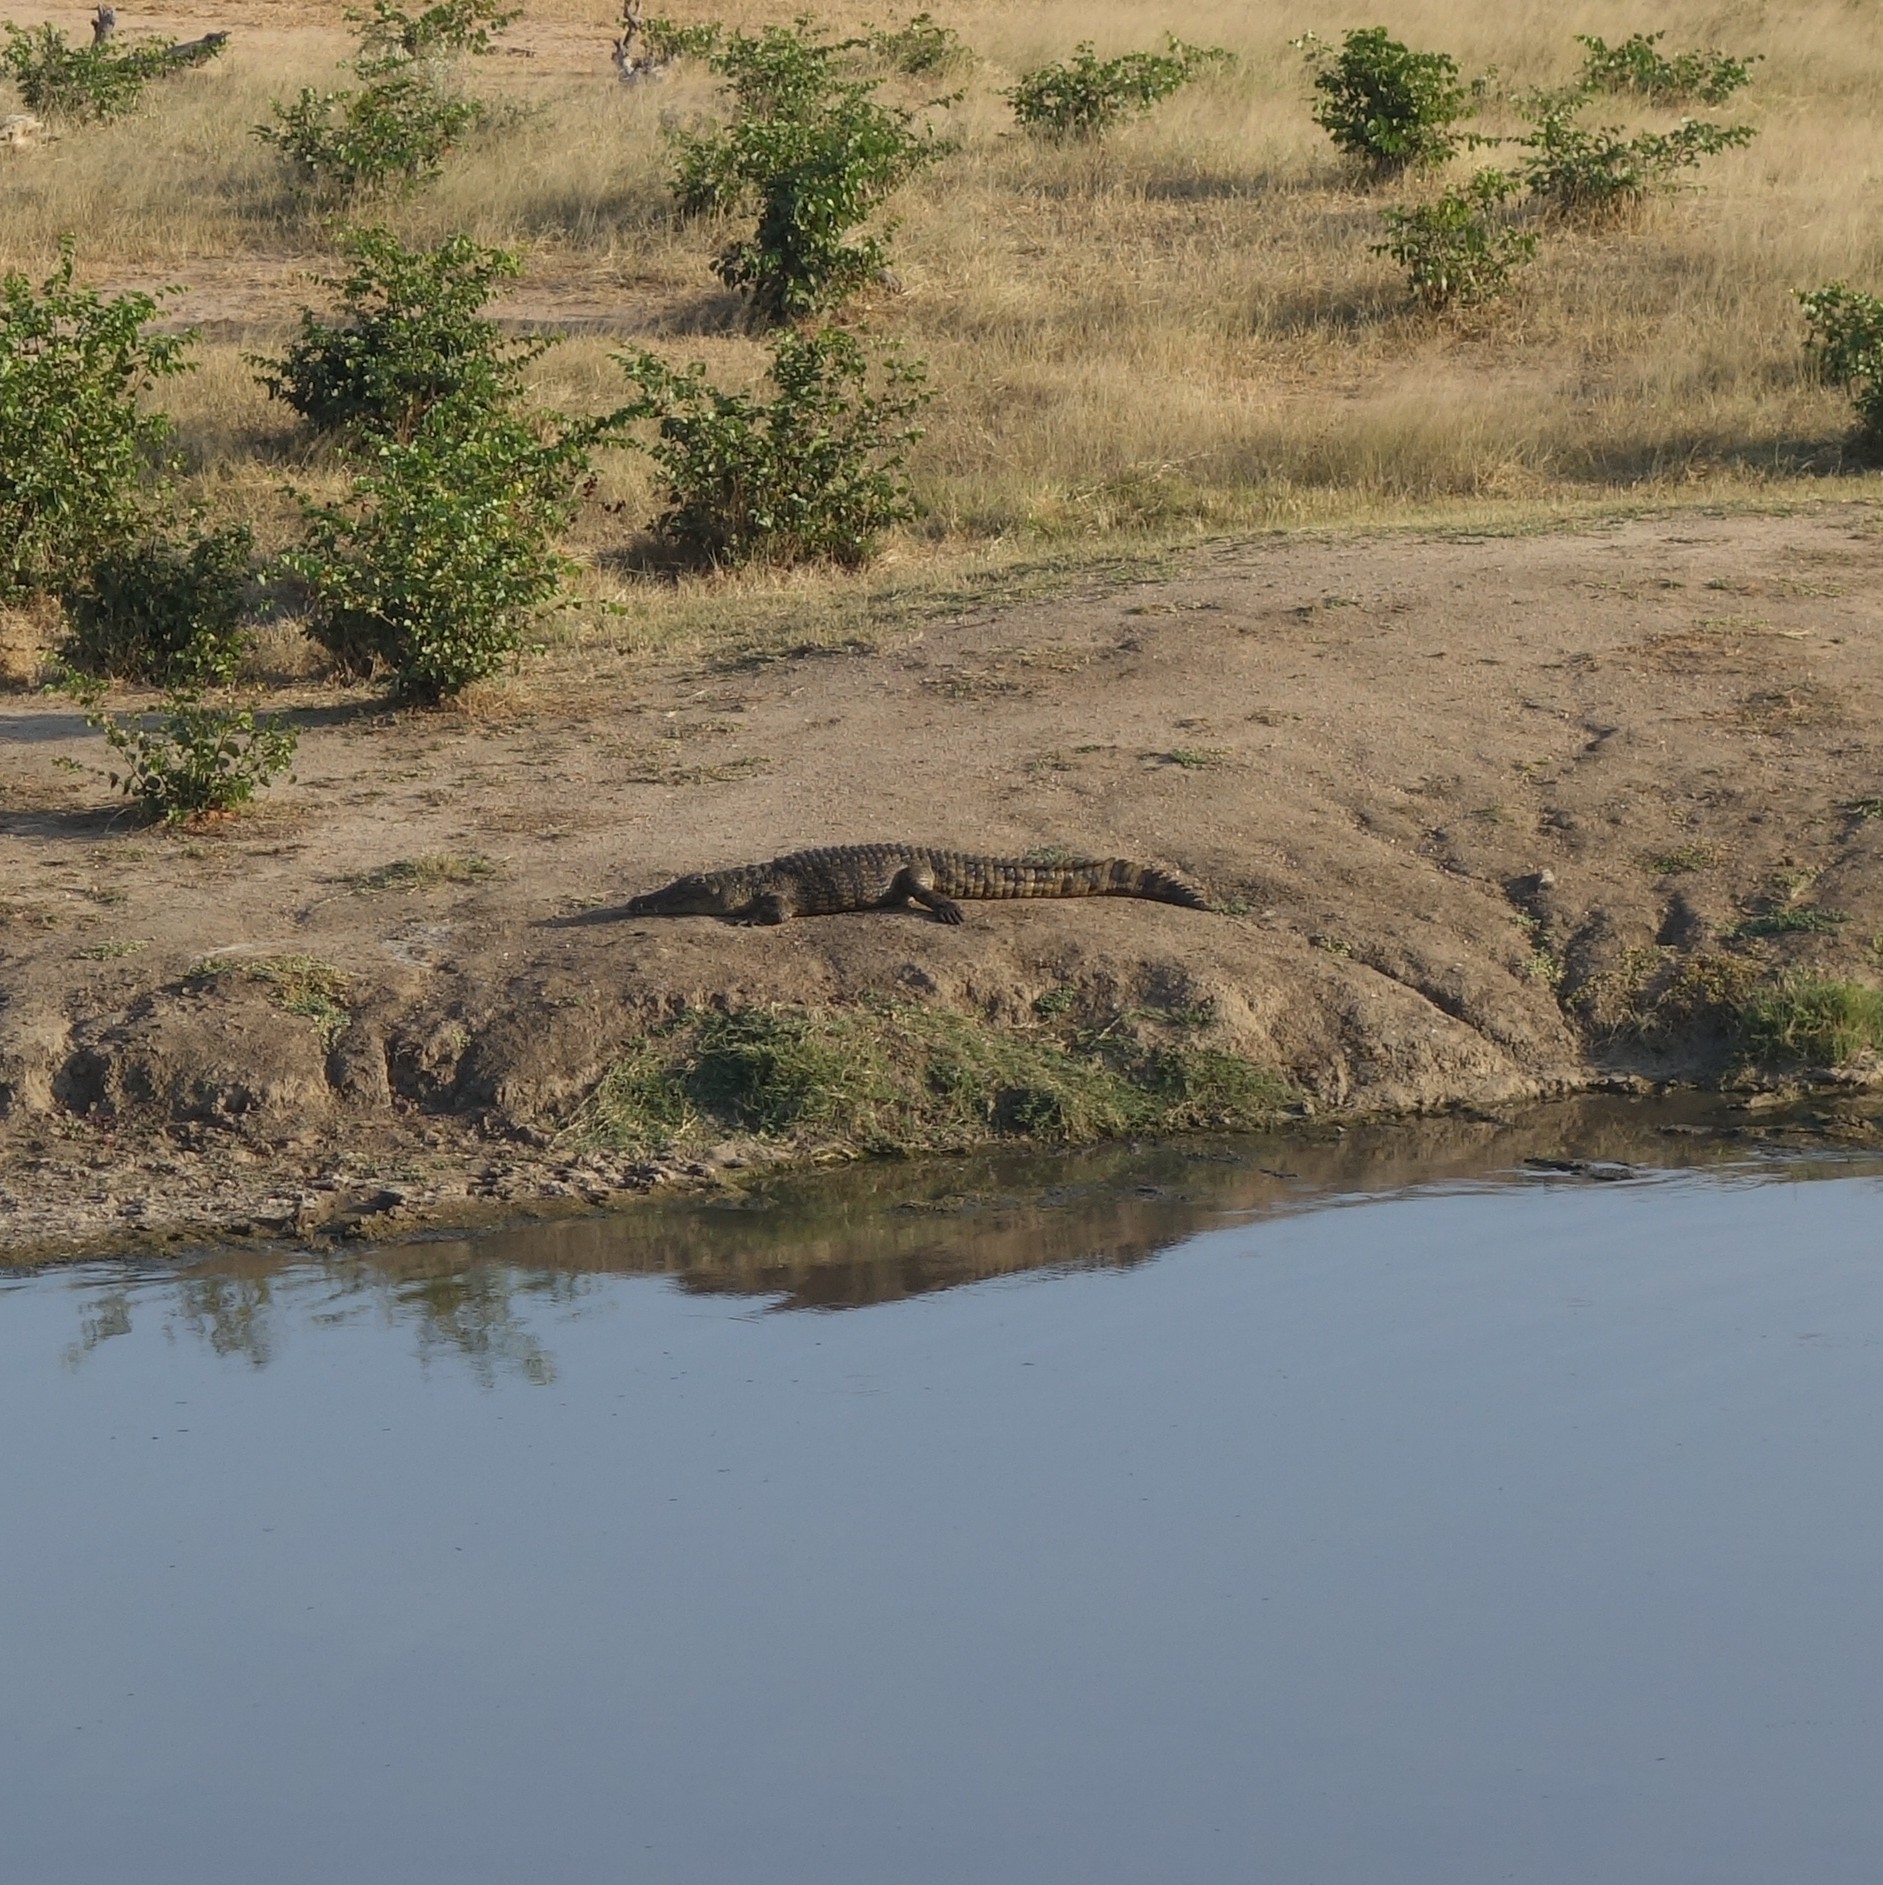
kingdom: Animalia
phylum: Chordata
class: Crocodylia
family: Crocodylidae
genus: Crocodylus
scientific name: Crocodylus niloticus
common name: Nile crocodile
